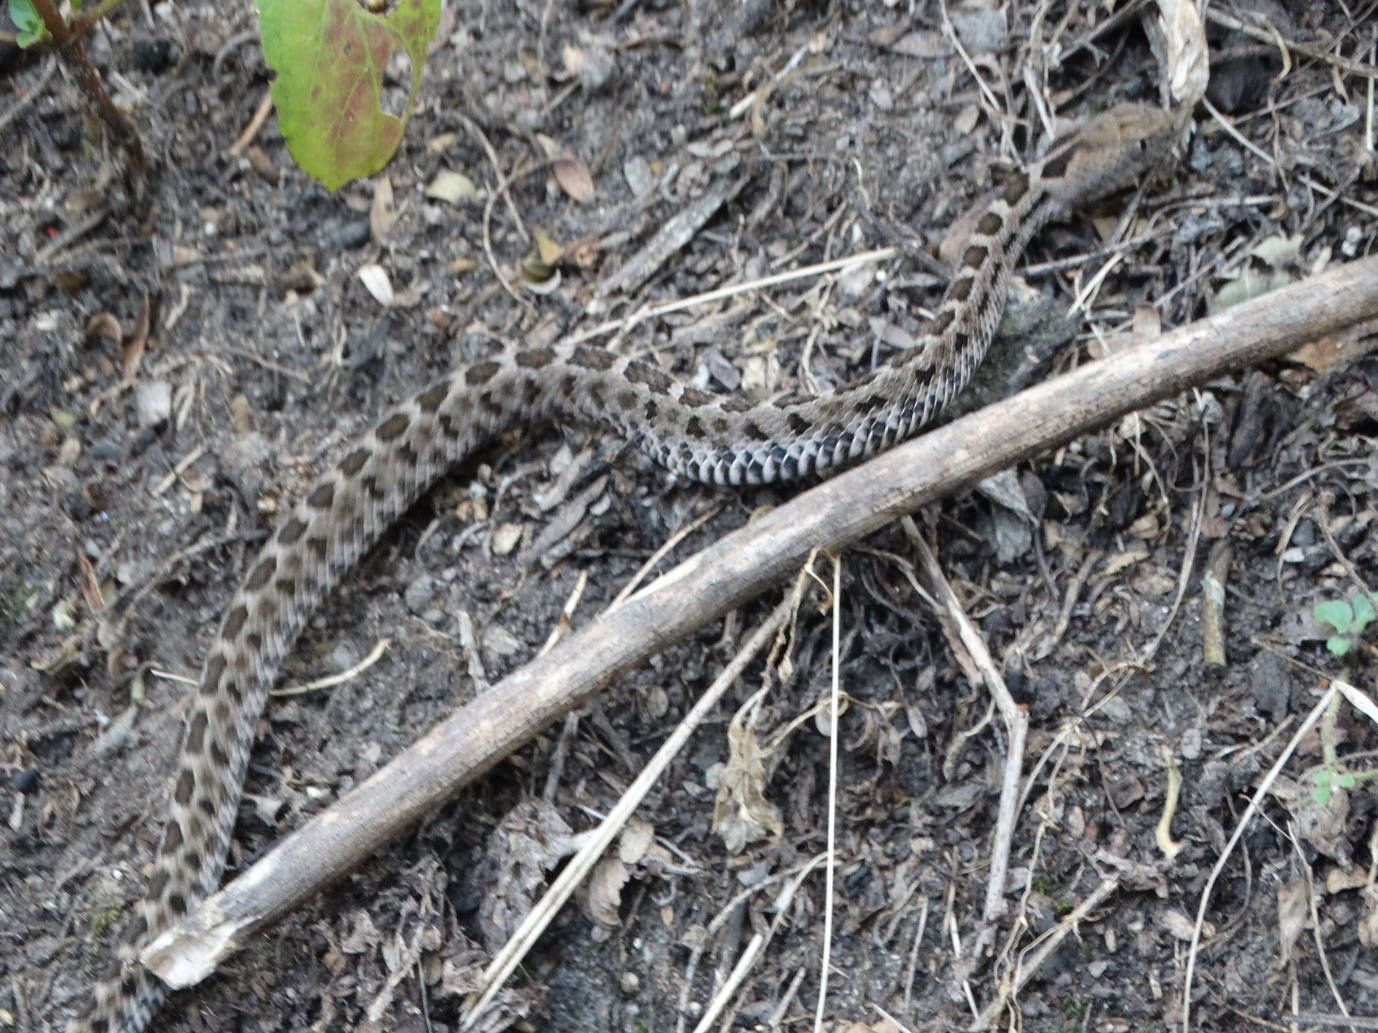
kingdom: Animalia
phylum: Chordata
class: Squamata
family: Viperidae
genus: Crotalus
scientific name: Crotalus ravus
